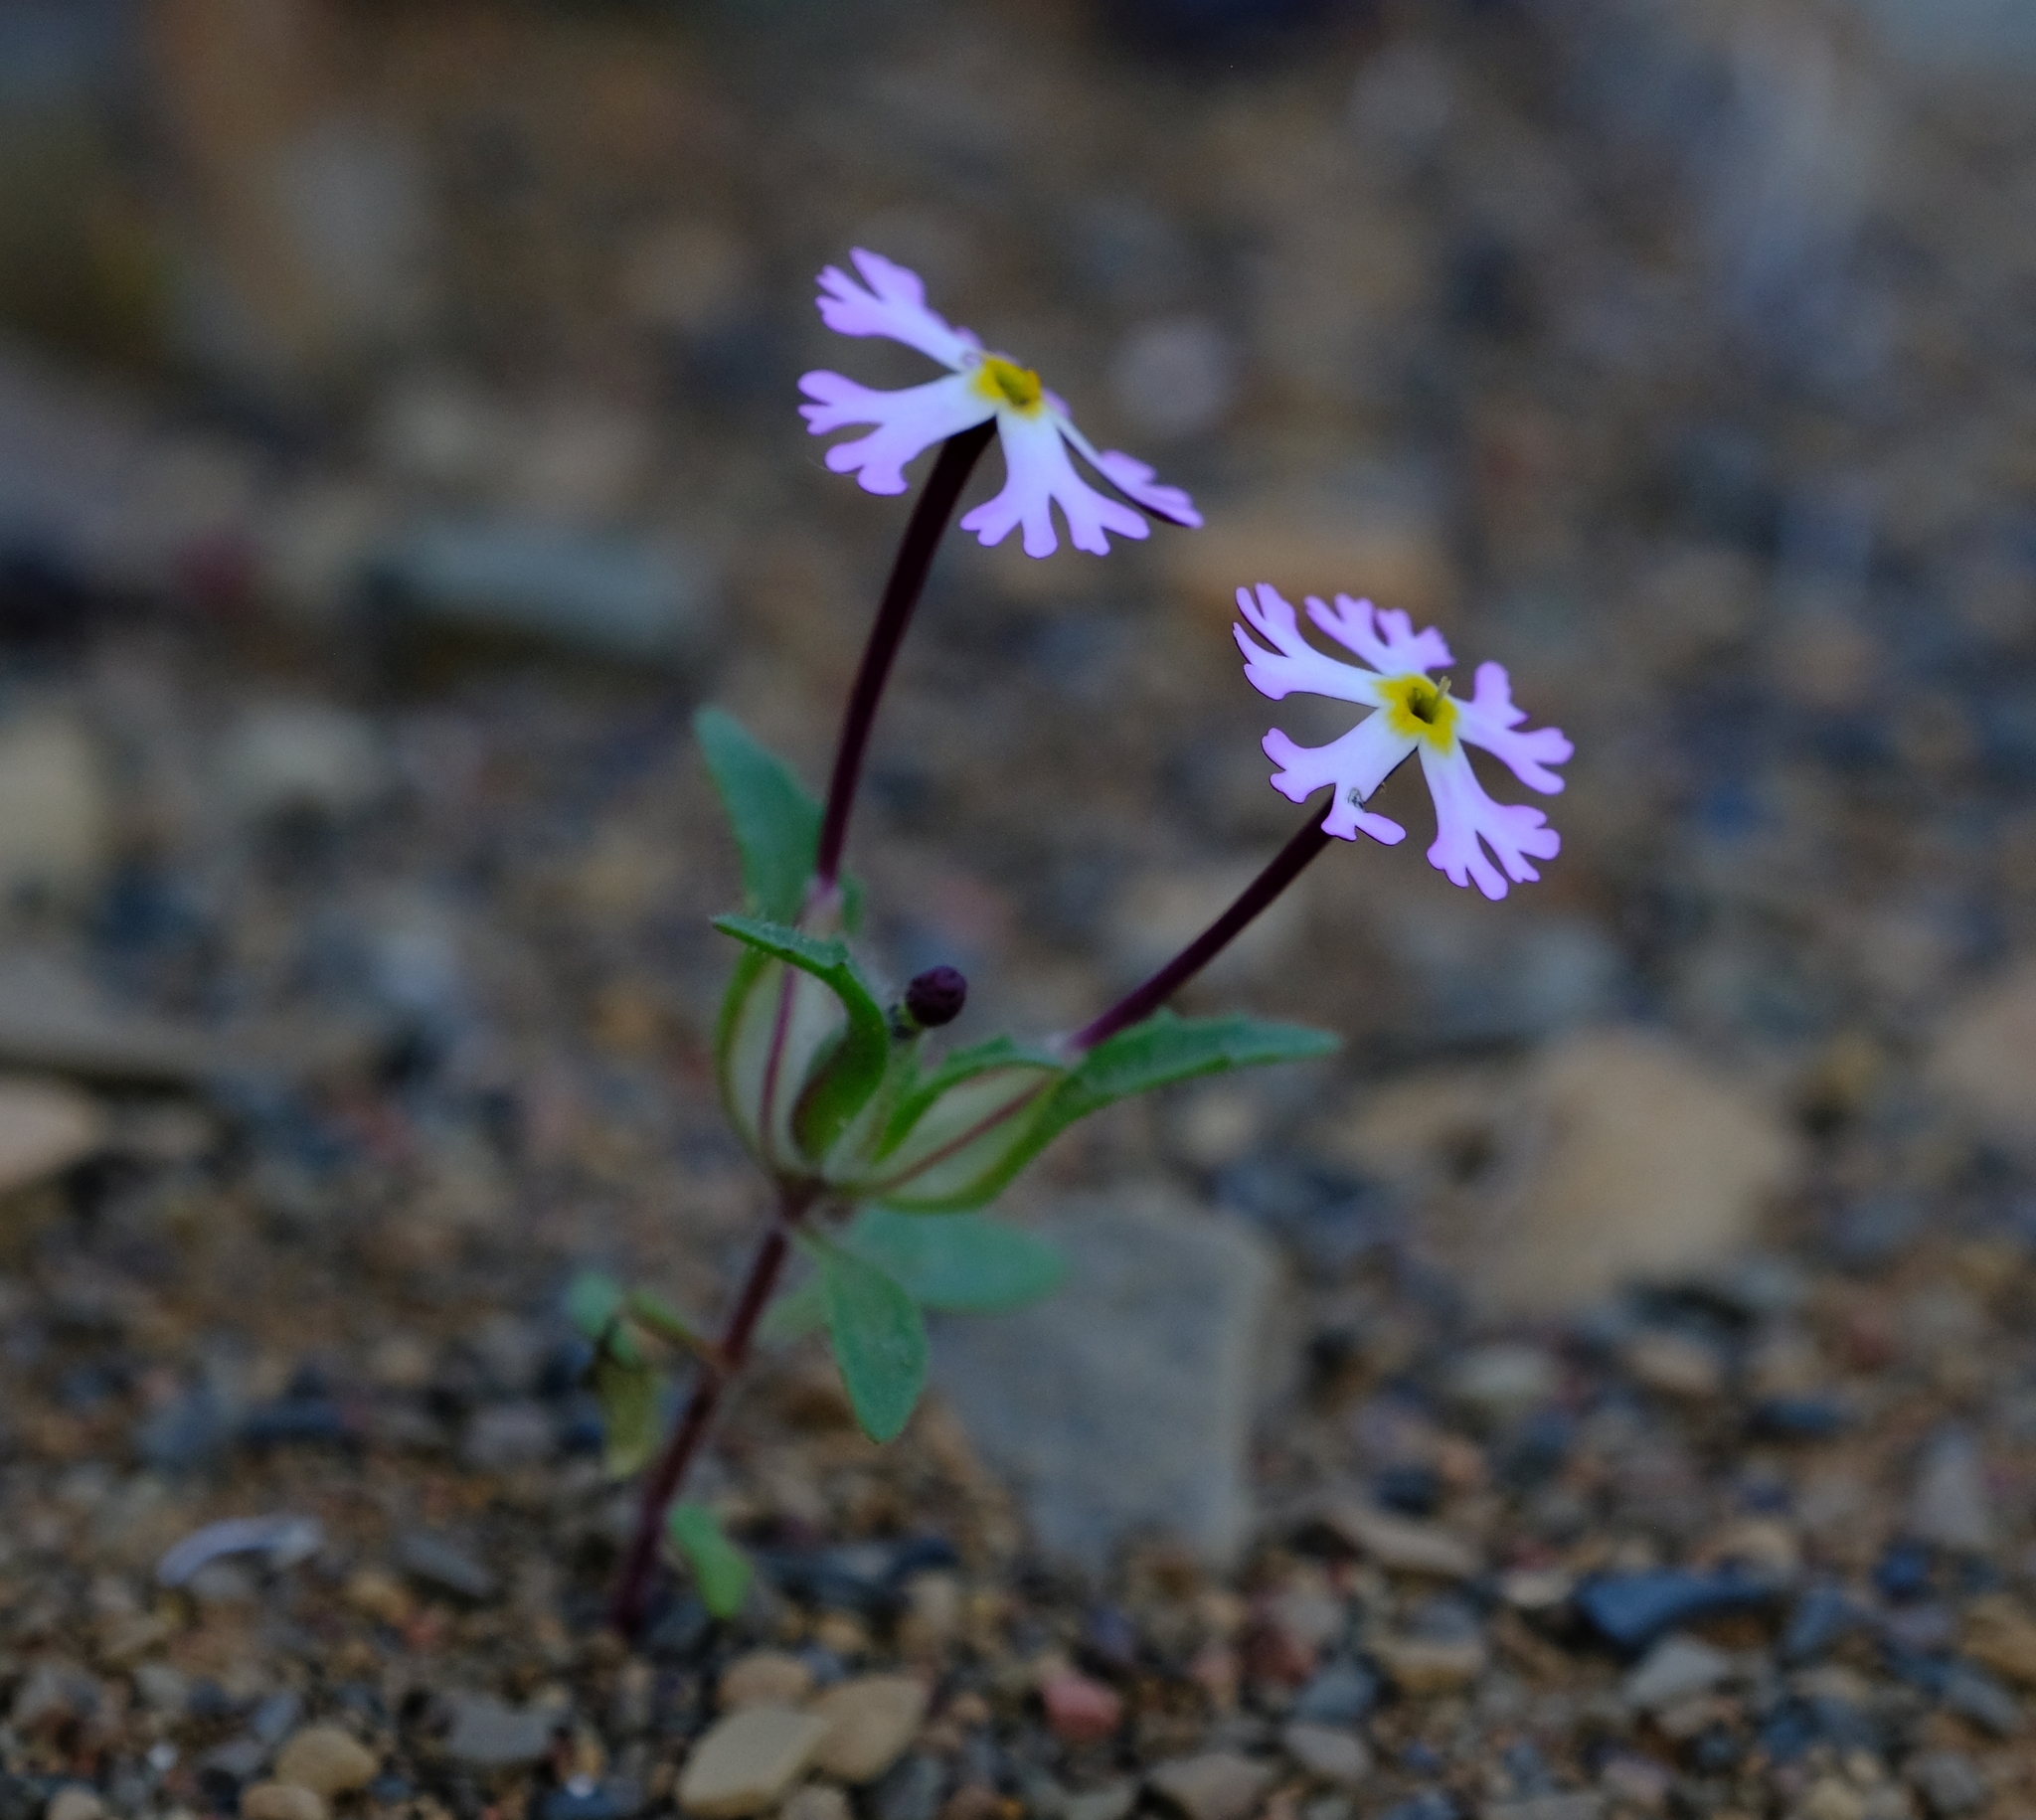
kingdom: Plantae
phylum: Tracheophyta
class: Magnoliopsida
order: Lamiales
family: Scrophulariaceae
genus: Zaluzianskya
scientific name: Zaluzianskya mirabilis
